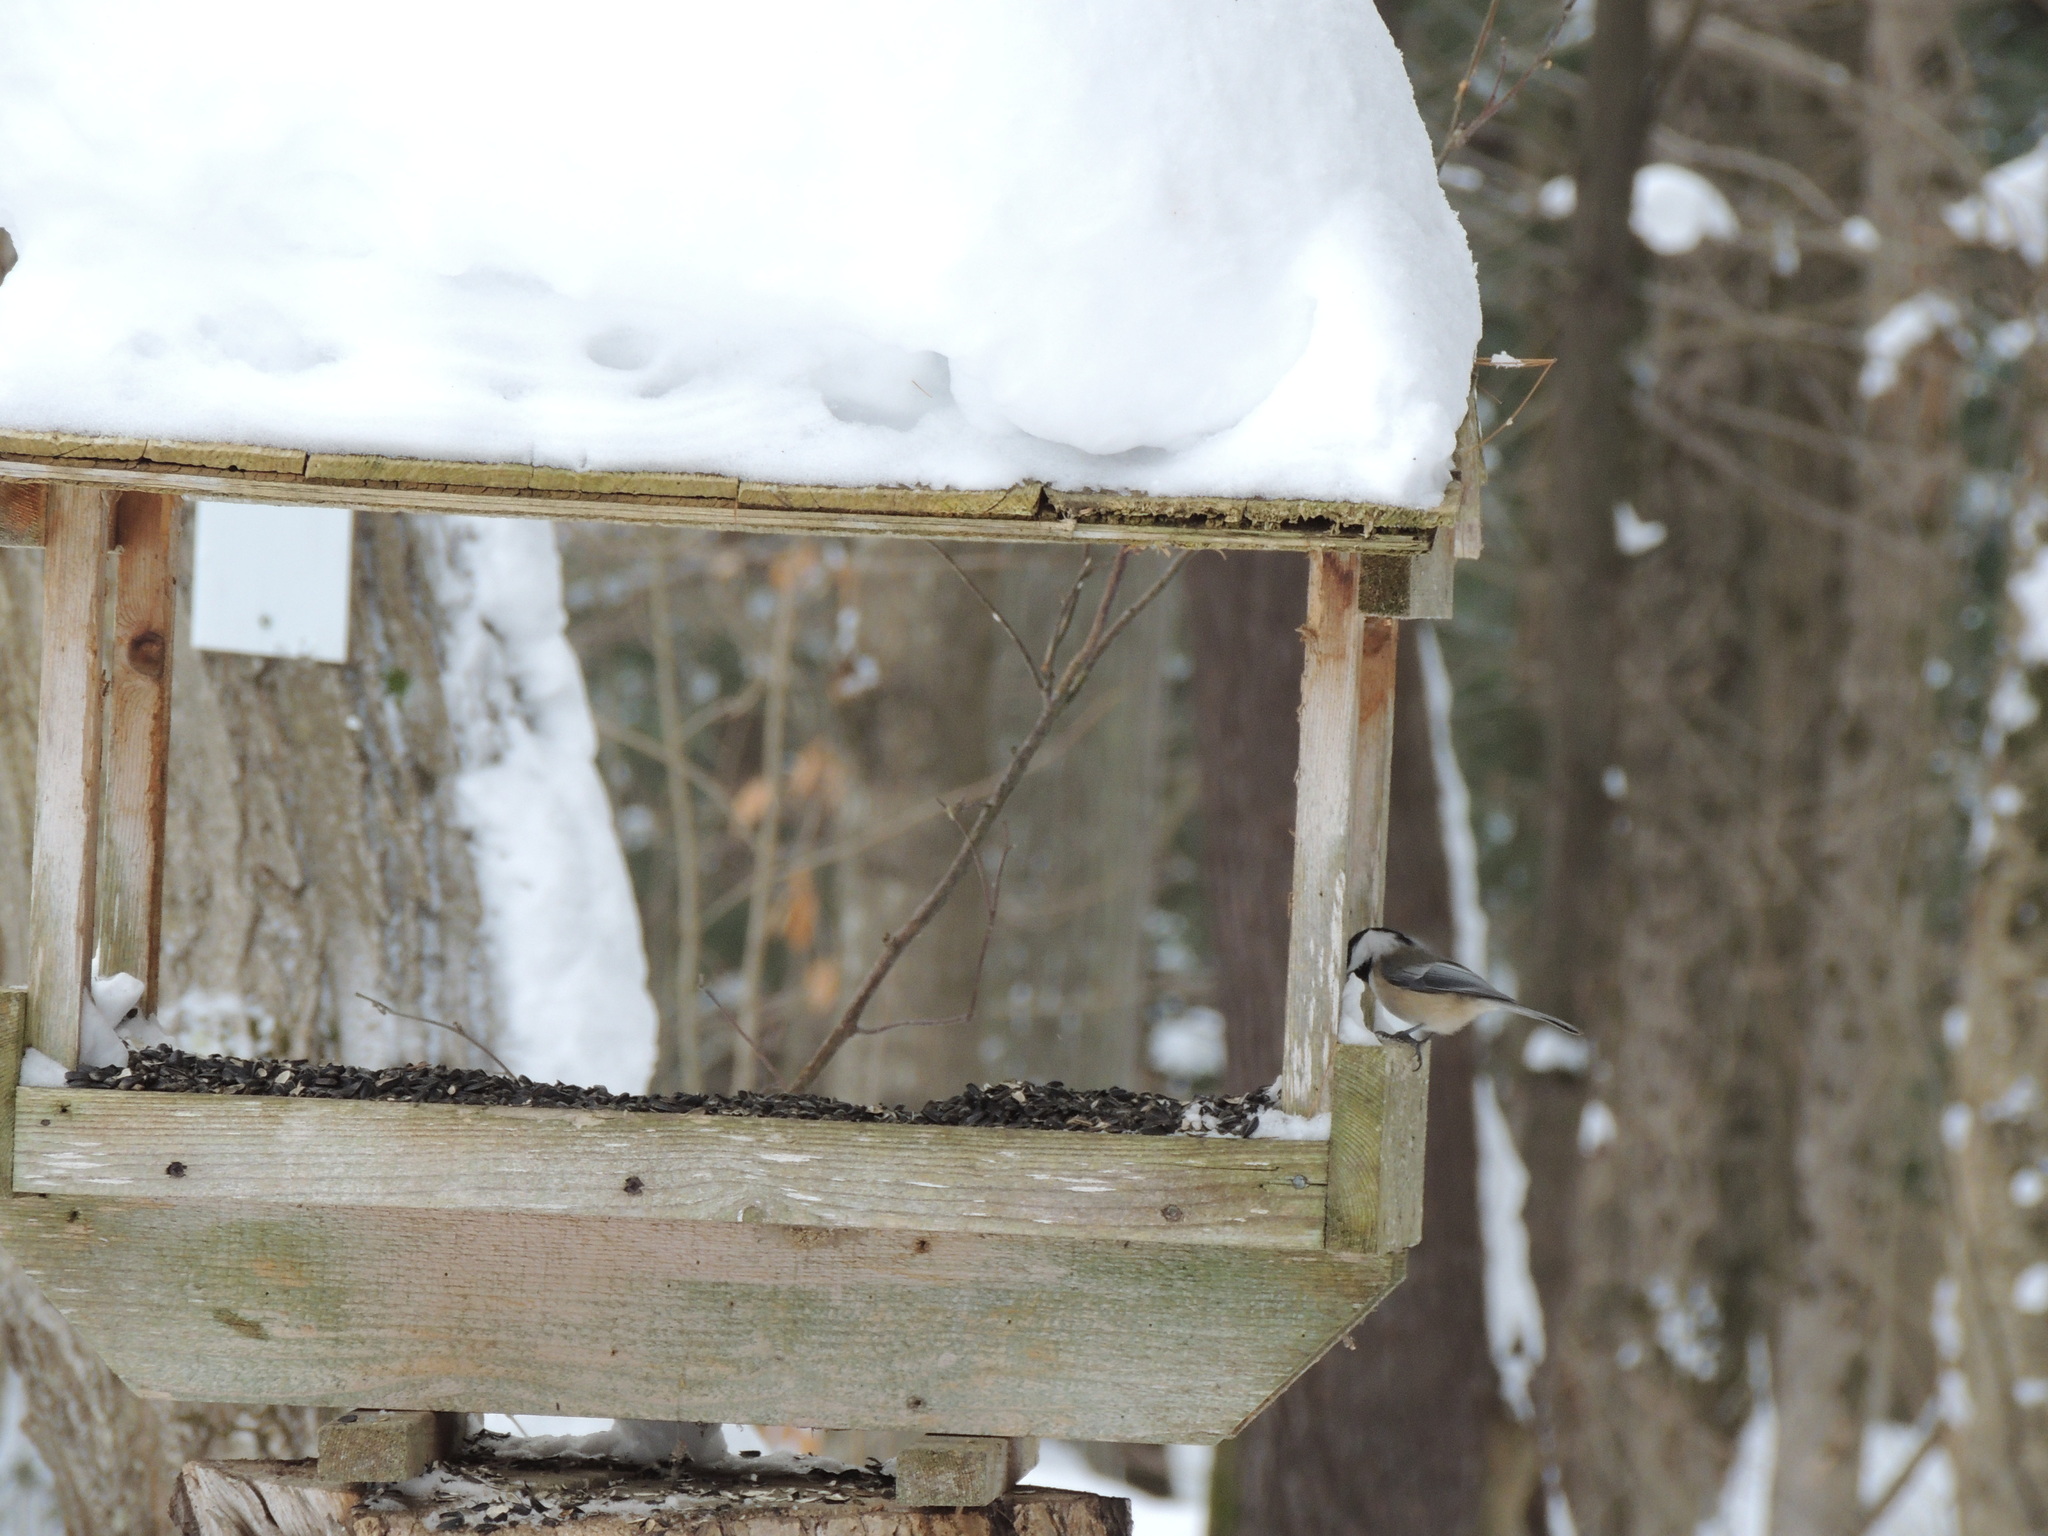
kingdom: Animalia
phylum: Chordata
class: Aves
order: Passeriformes
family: Paridae
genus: Poecile
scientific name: Poecile atricapillus
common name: Black-capped chickadee
